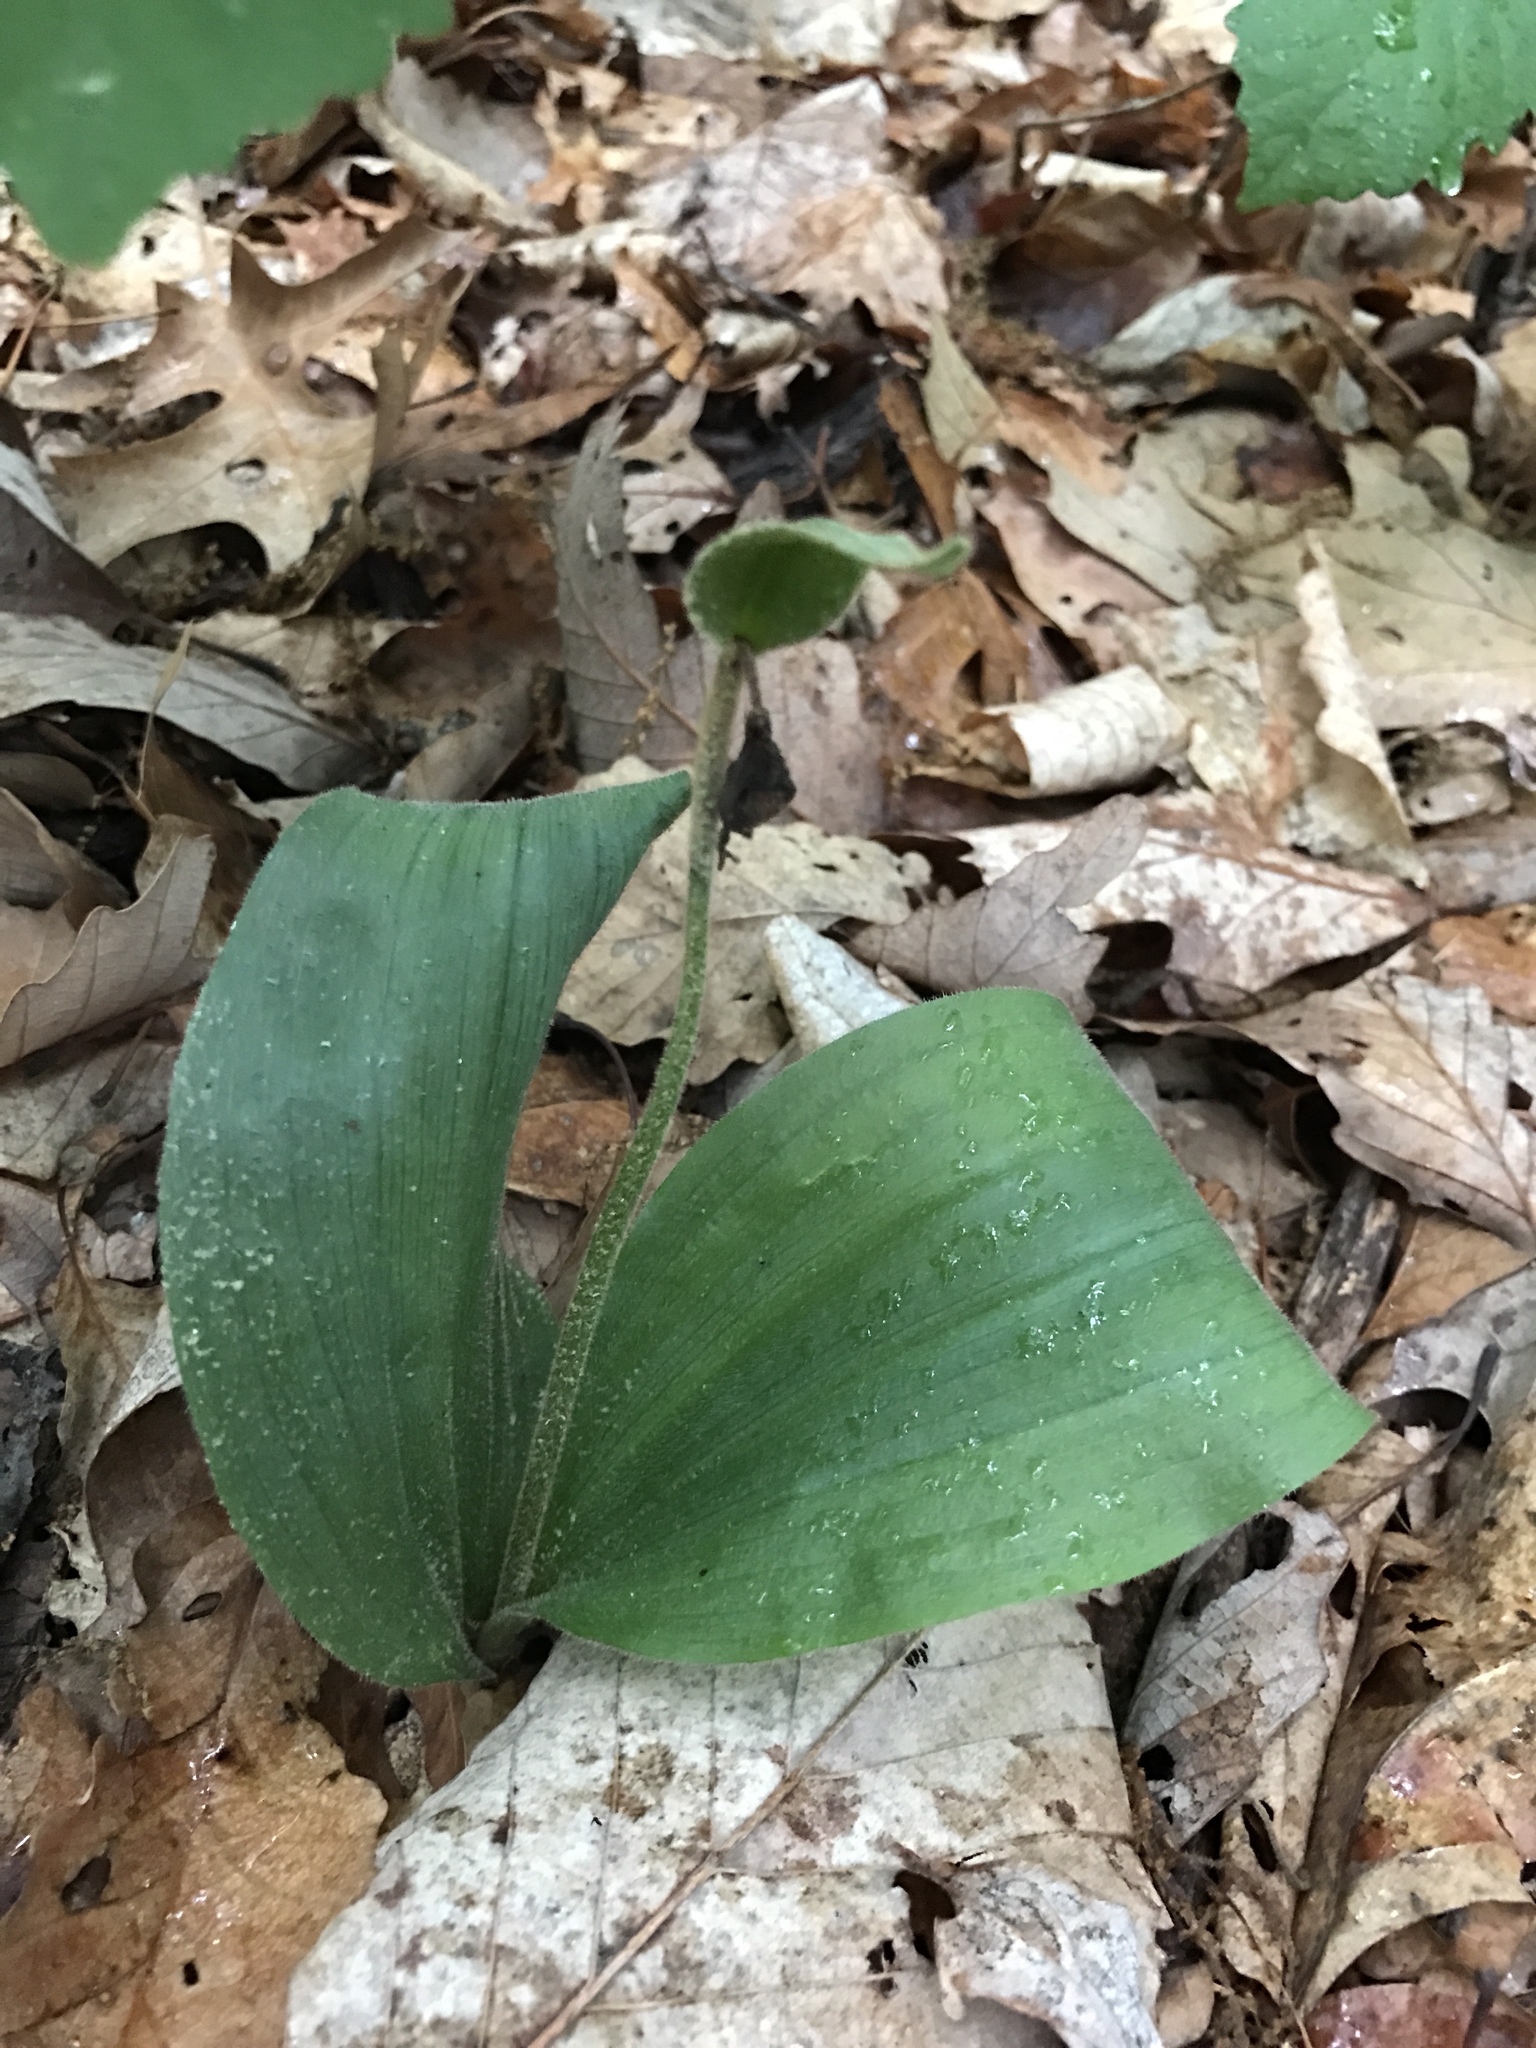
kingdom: Plantae
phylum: Tracheophyta
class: Liliopsida
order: Asparagales
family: Orchidaceae
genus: Cypripedium
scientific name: Cypripedium acaule
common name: Pink lady's-slipper
